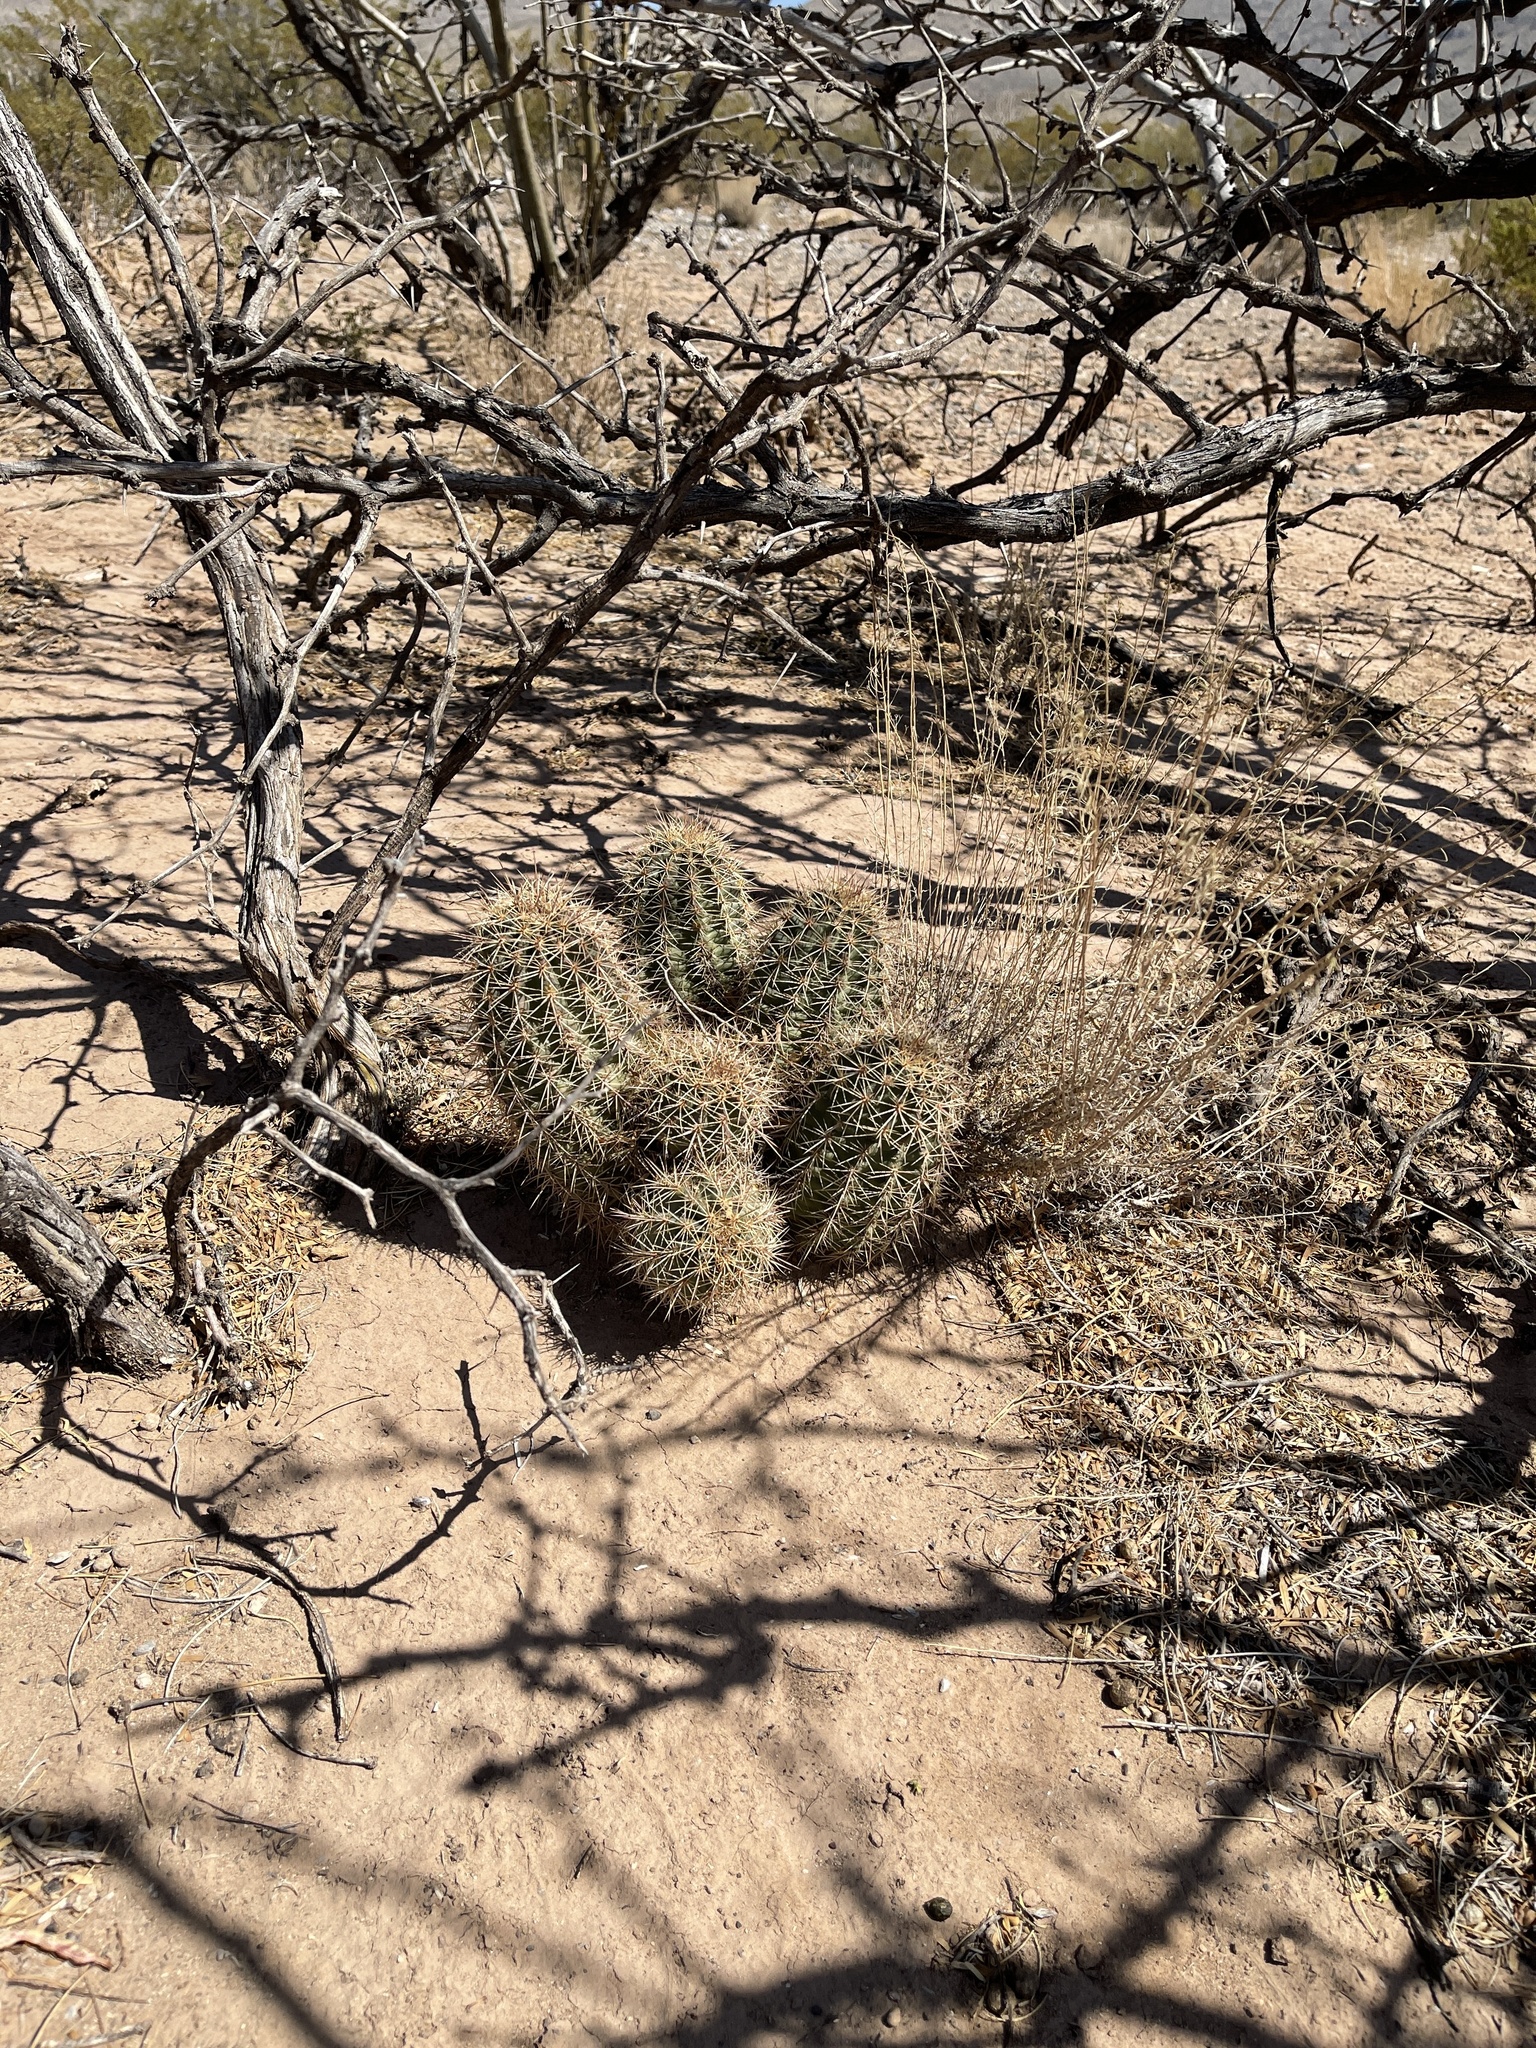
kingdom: Plantae
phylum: Tracheophyta
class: Magnoliopsida
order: Caryophyllales
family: Cactaceae
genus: Echinocereus
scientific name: Echinocereus coccineus
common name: Scarlet hedgehog cactus
